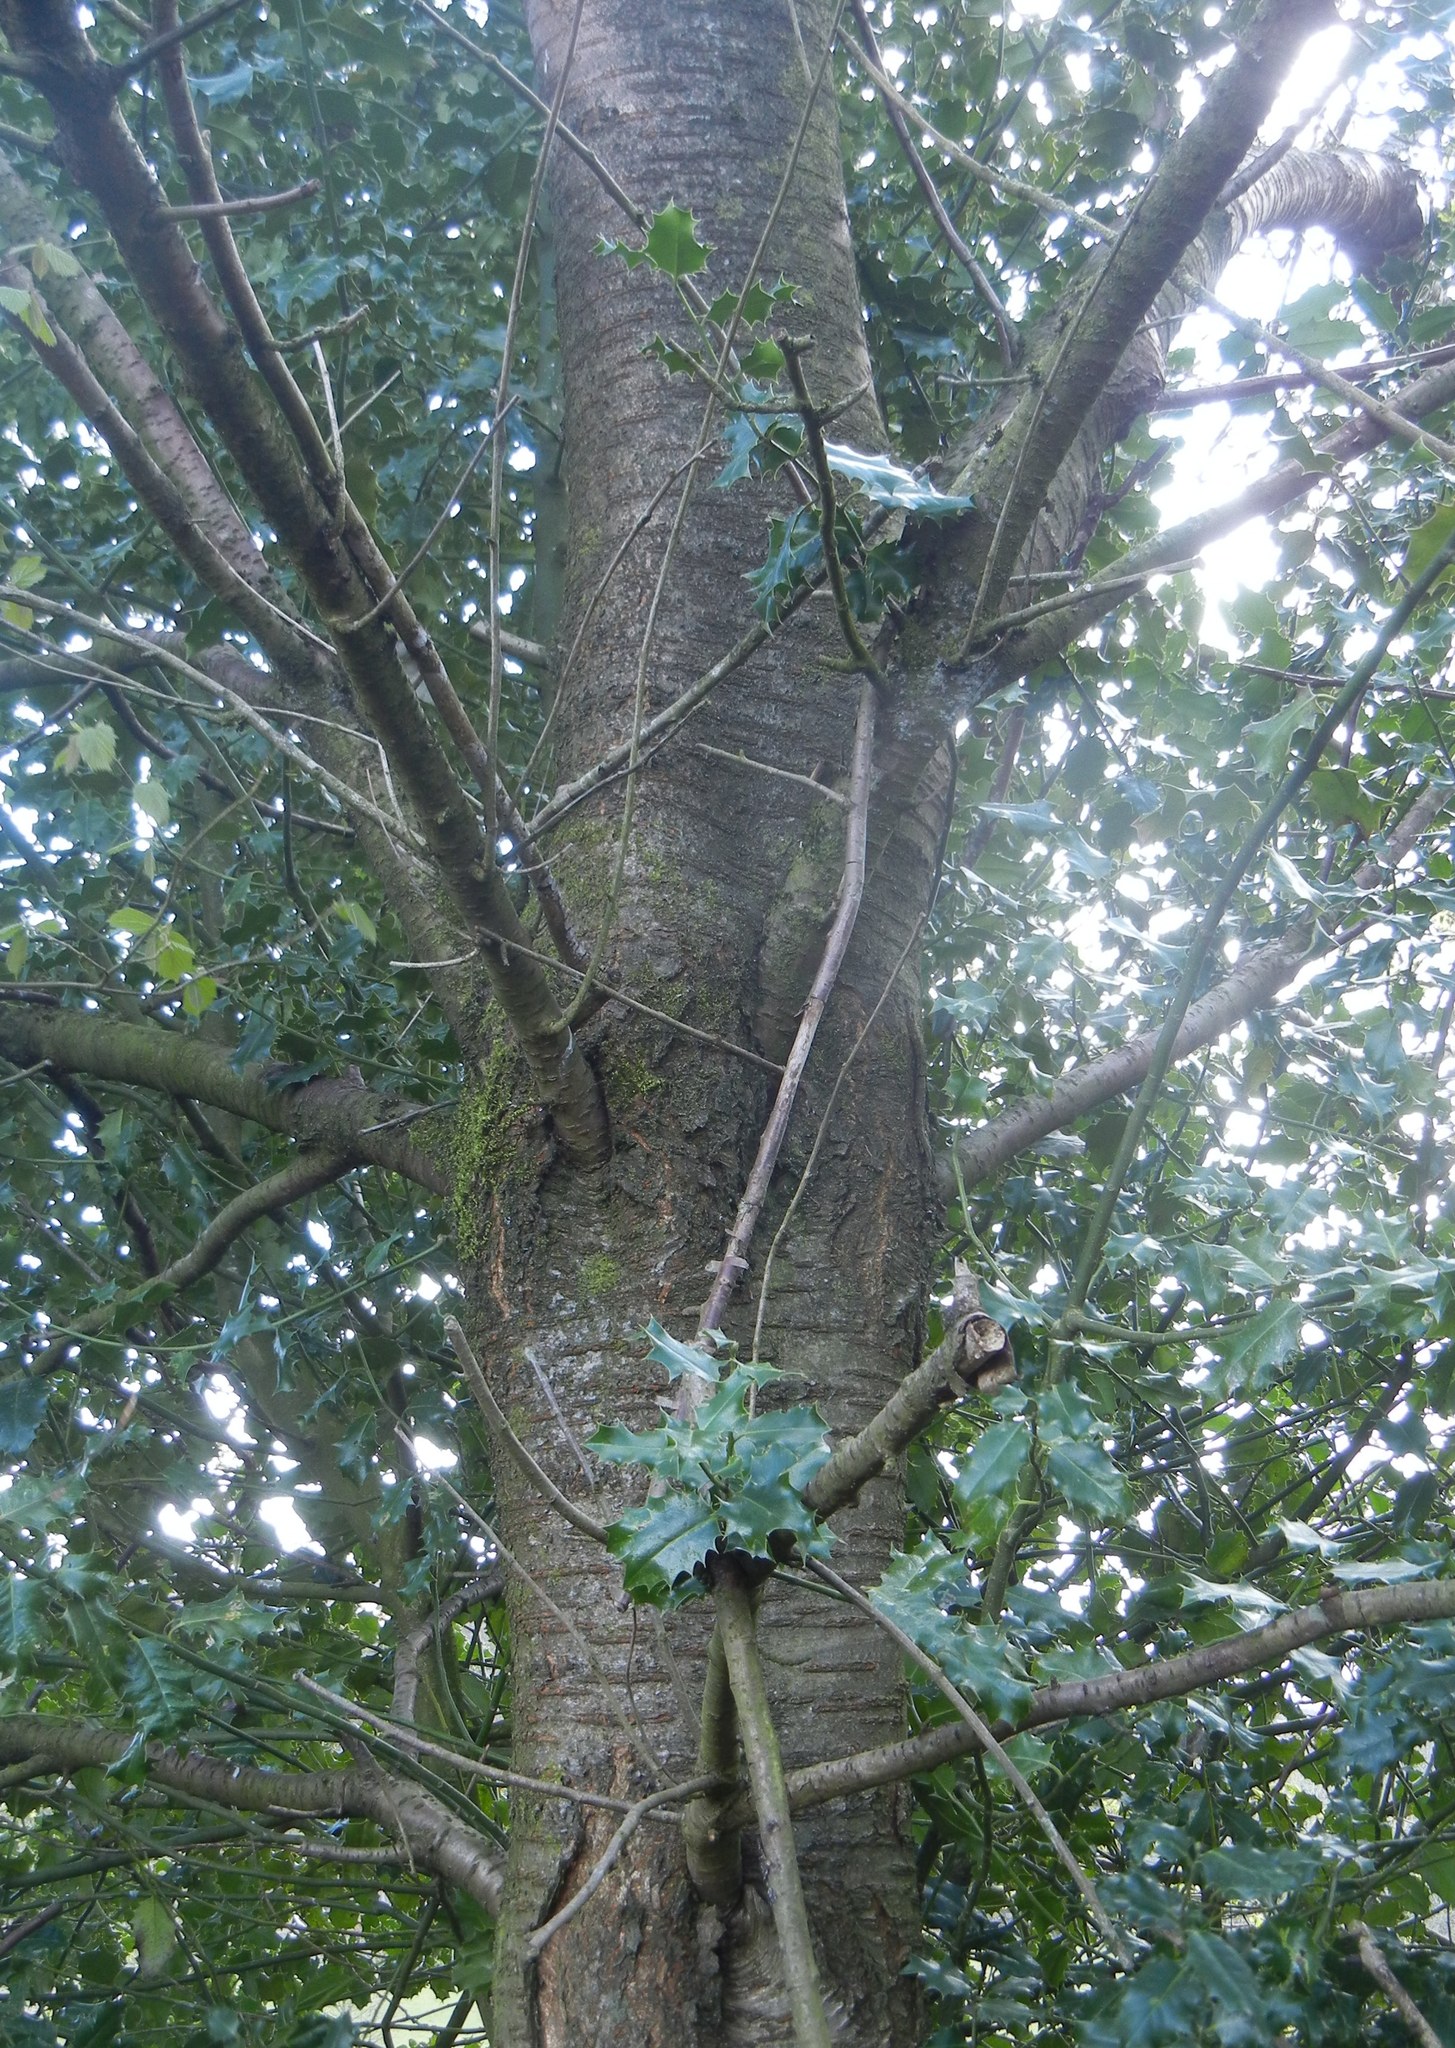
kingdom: Plantae
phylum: Tracheophyta
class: Magnoliopsida
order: Rosales
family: Rosaceae
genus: Prunus
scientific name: Prunus avium
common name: Sweet cherry
